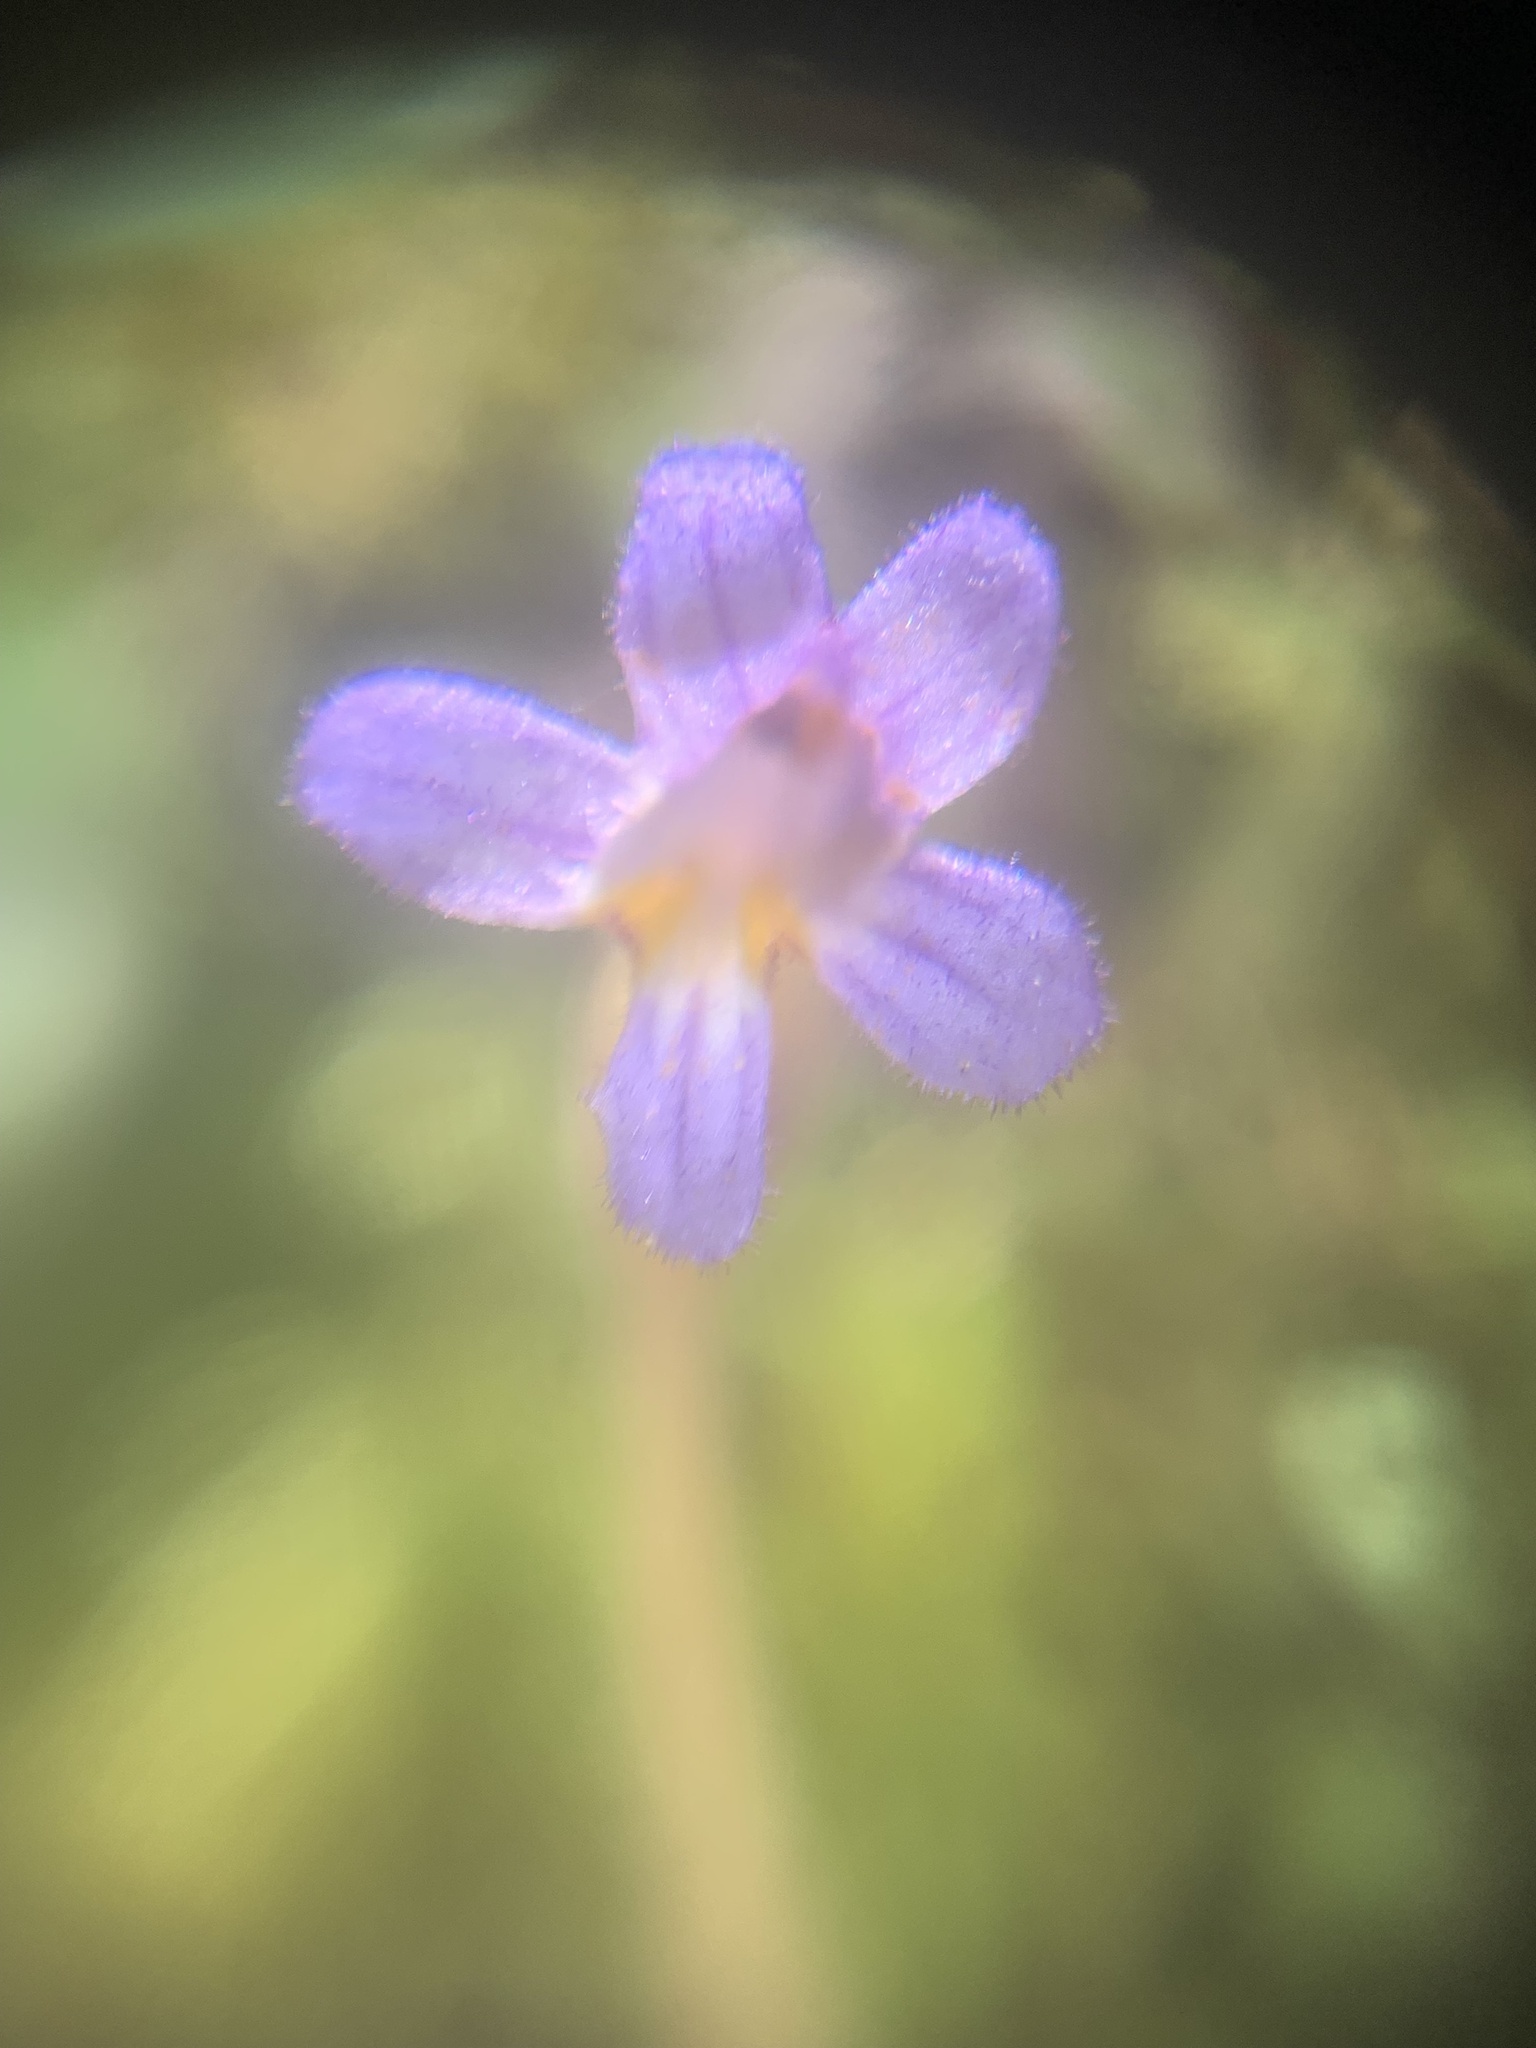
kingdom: Plantae
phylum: Tracheophyta
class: Magnoliopsida
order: Lamiales
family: Orobanchaceae
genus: Aphyllon
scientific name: Aphyllon uniflorum
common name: One-flowered broomrape
